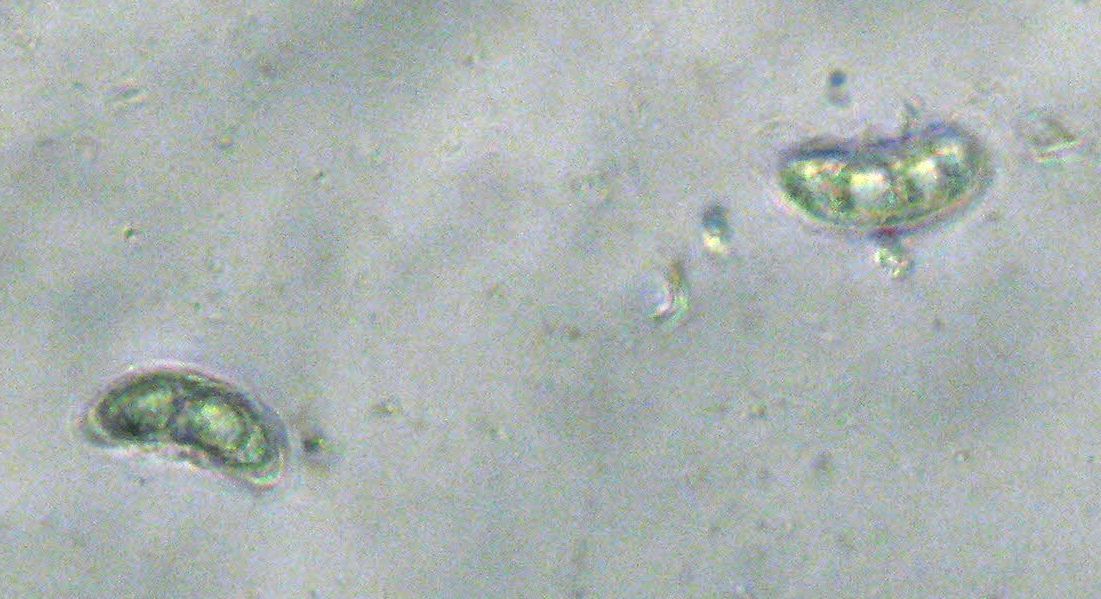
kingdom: Fungi
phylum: Ascomycota
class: Pezizomycetes
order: Pezizales
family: Sarcosomataceae
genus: Plectania
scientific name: Plectania campylospora
